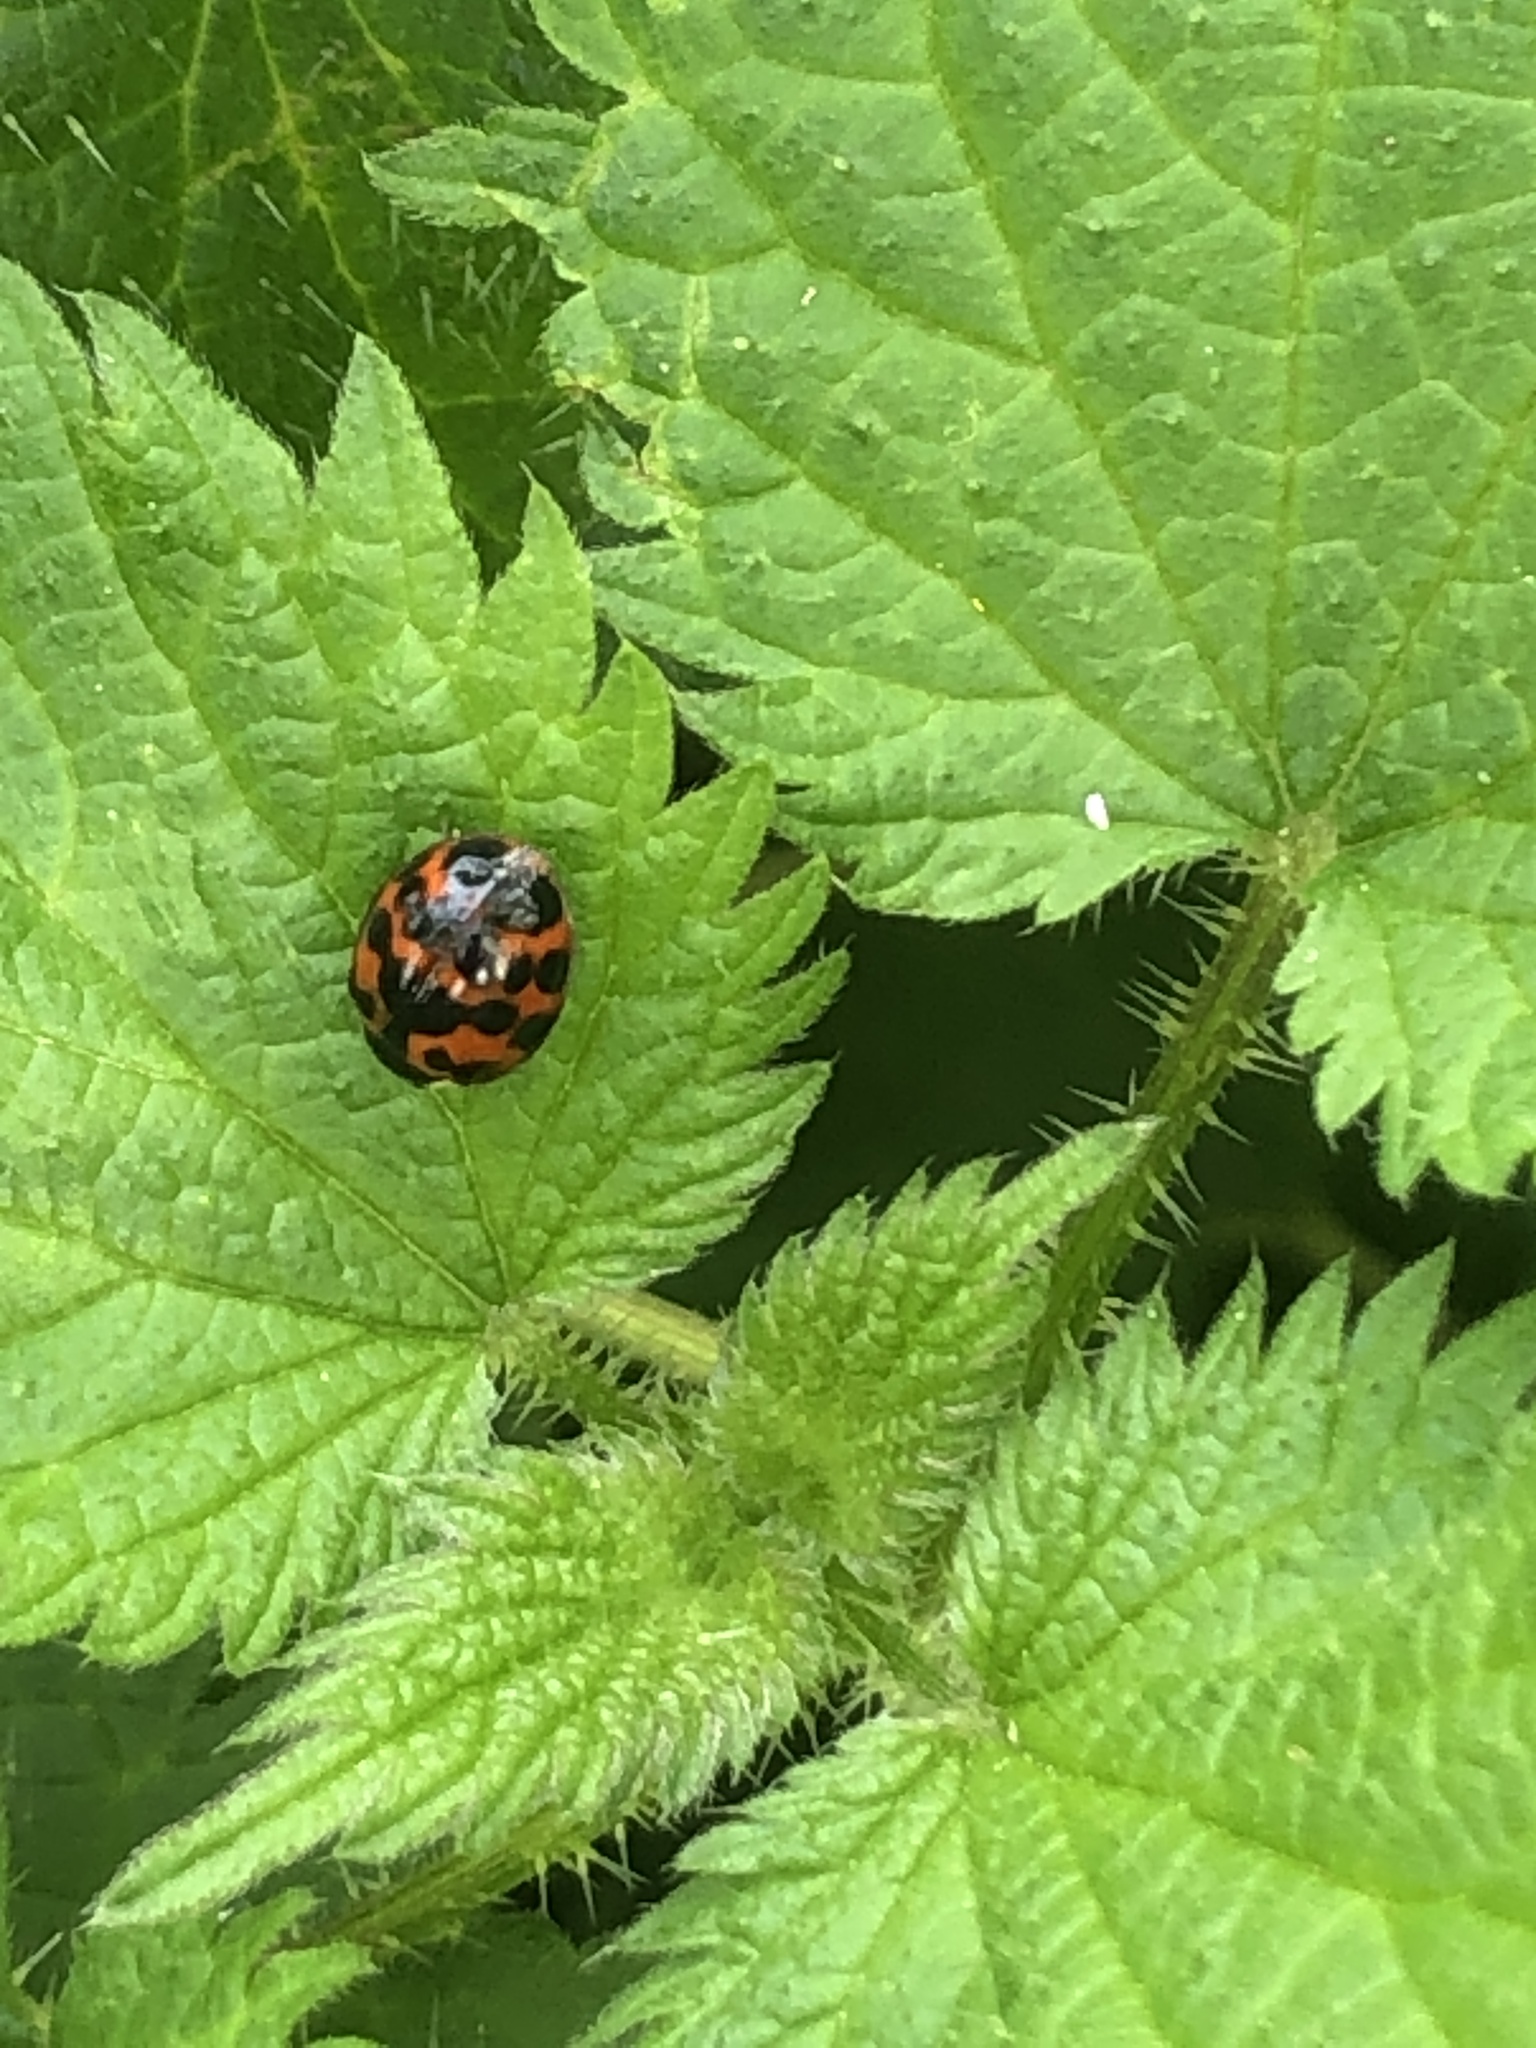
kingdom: Animalia
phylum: Arthropoda
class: Insecta
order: Coleoptera
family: Coccinellidae
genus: Harmonia
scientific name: Harmonia axyridis
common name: Harlequin ladybird
